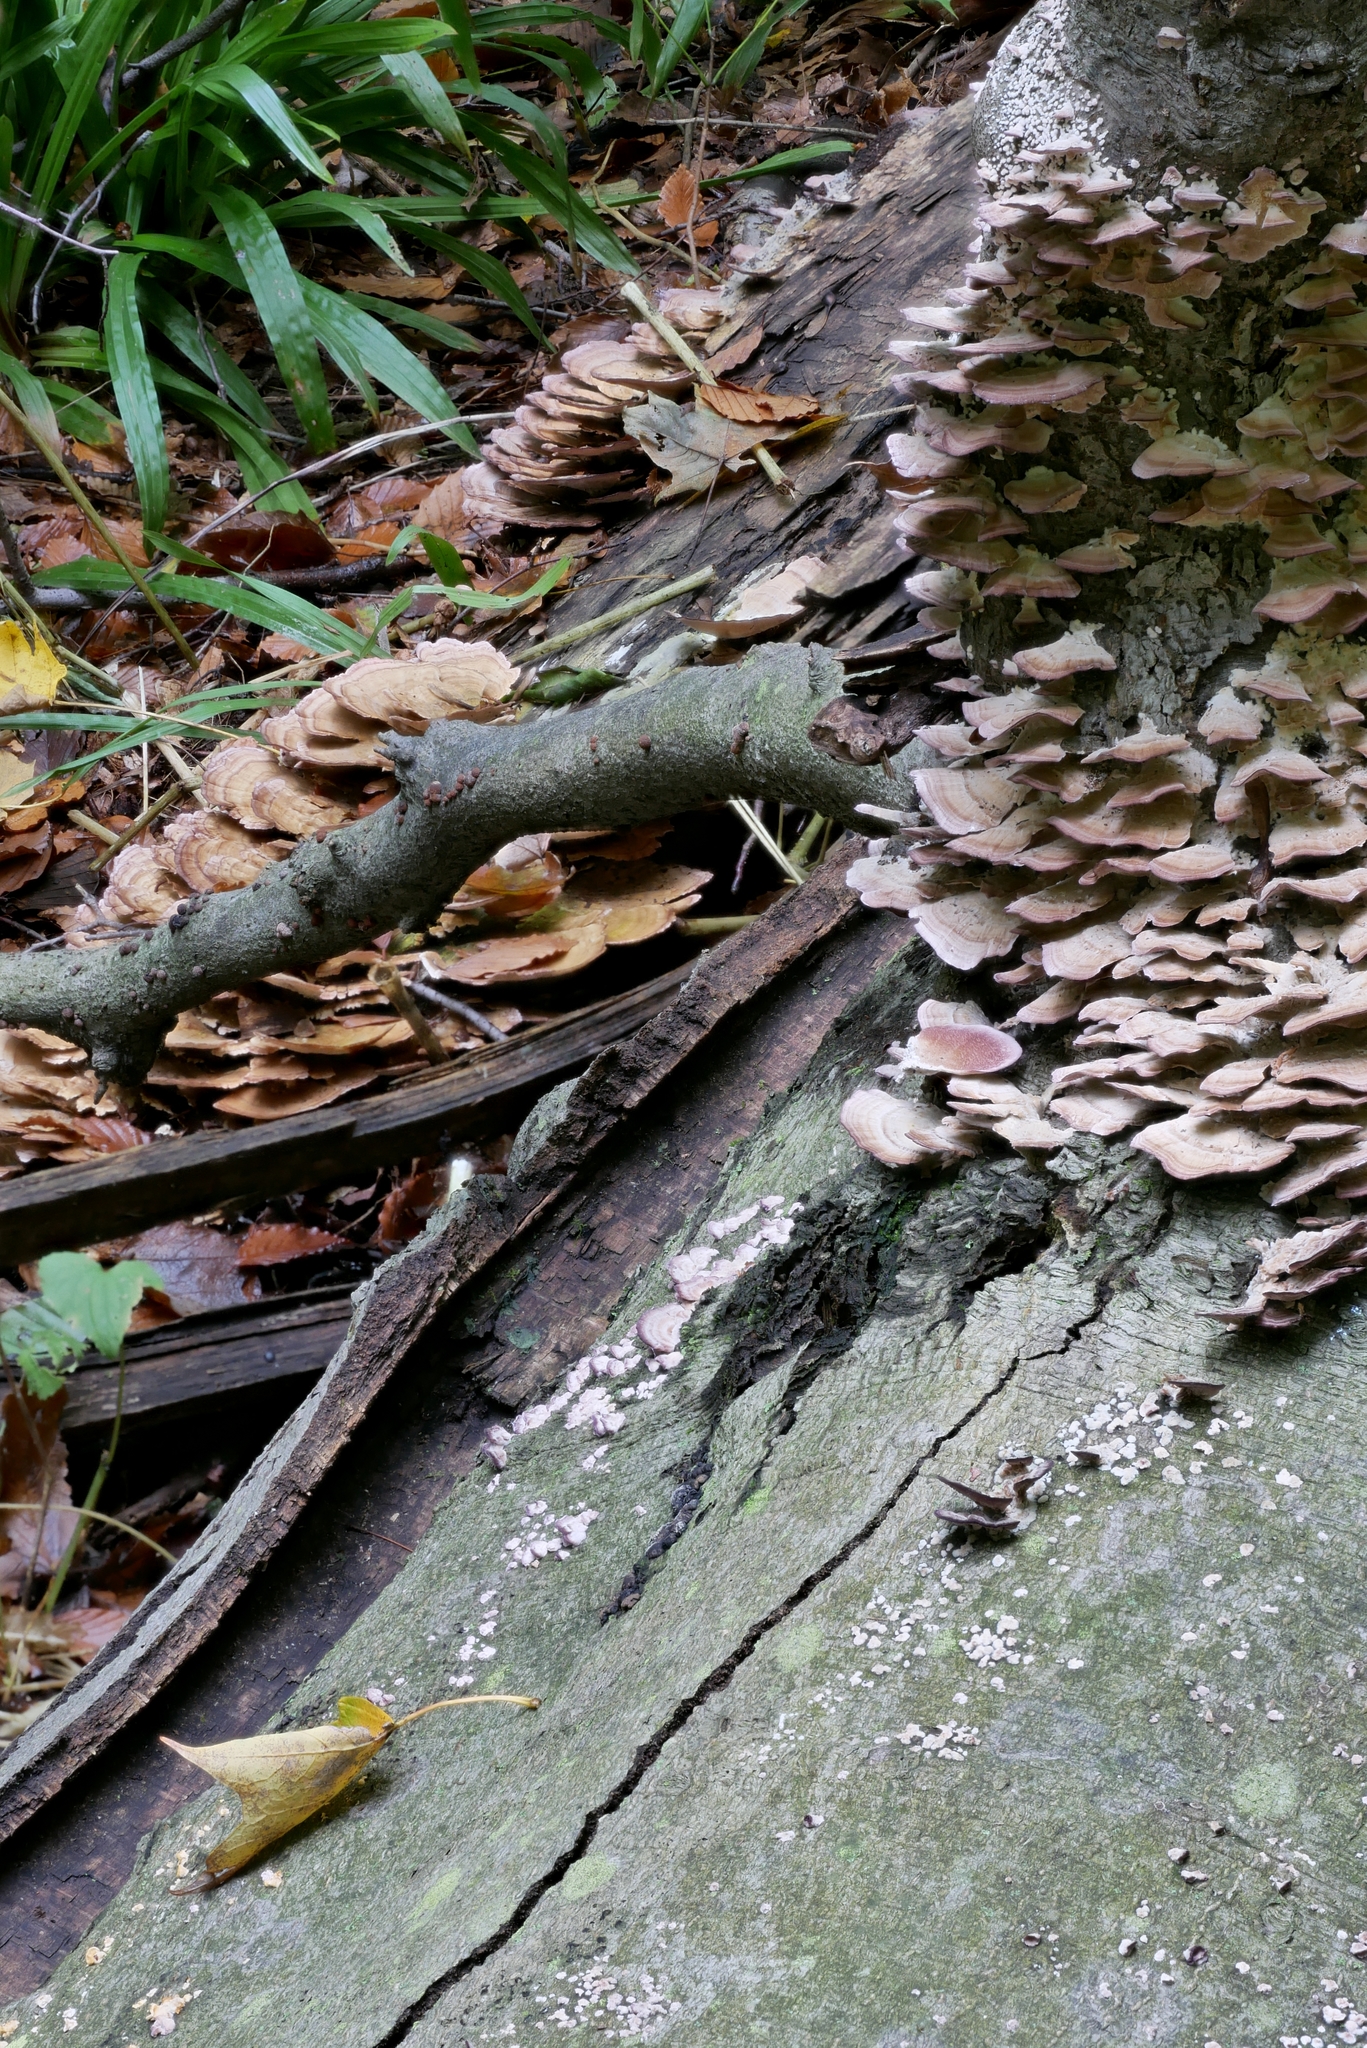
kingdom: Fungi
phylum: Basidiomycota
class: Agaricomycetes
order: Hymenochaetales
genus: Trichaptum
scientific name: Trichaptum subchartaceum
